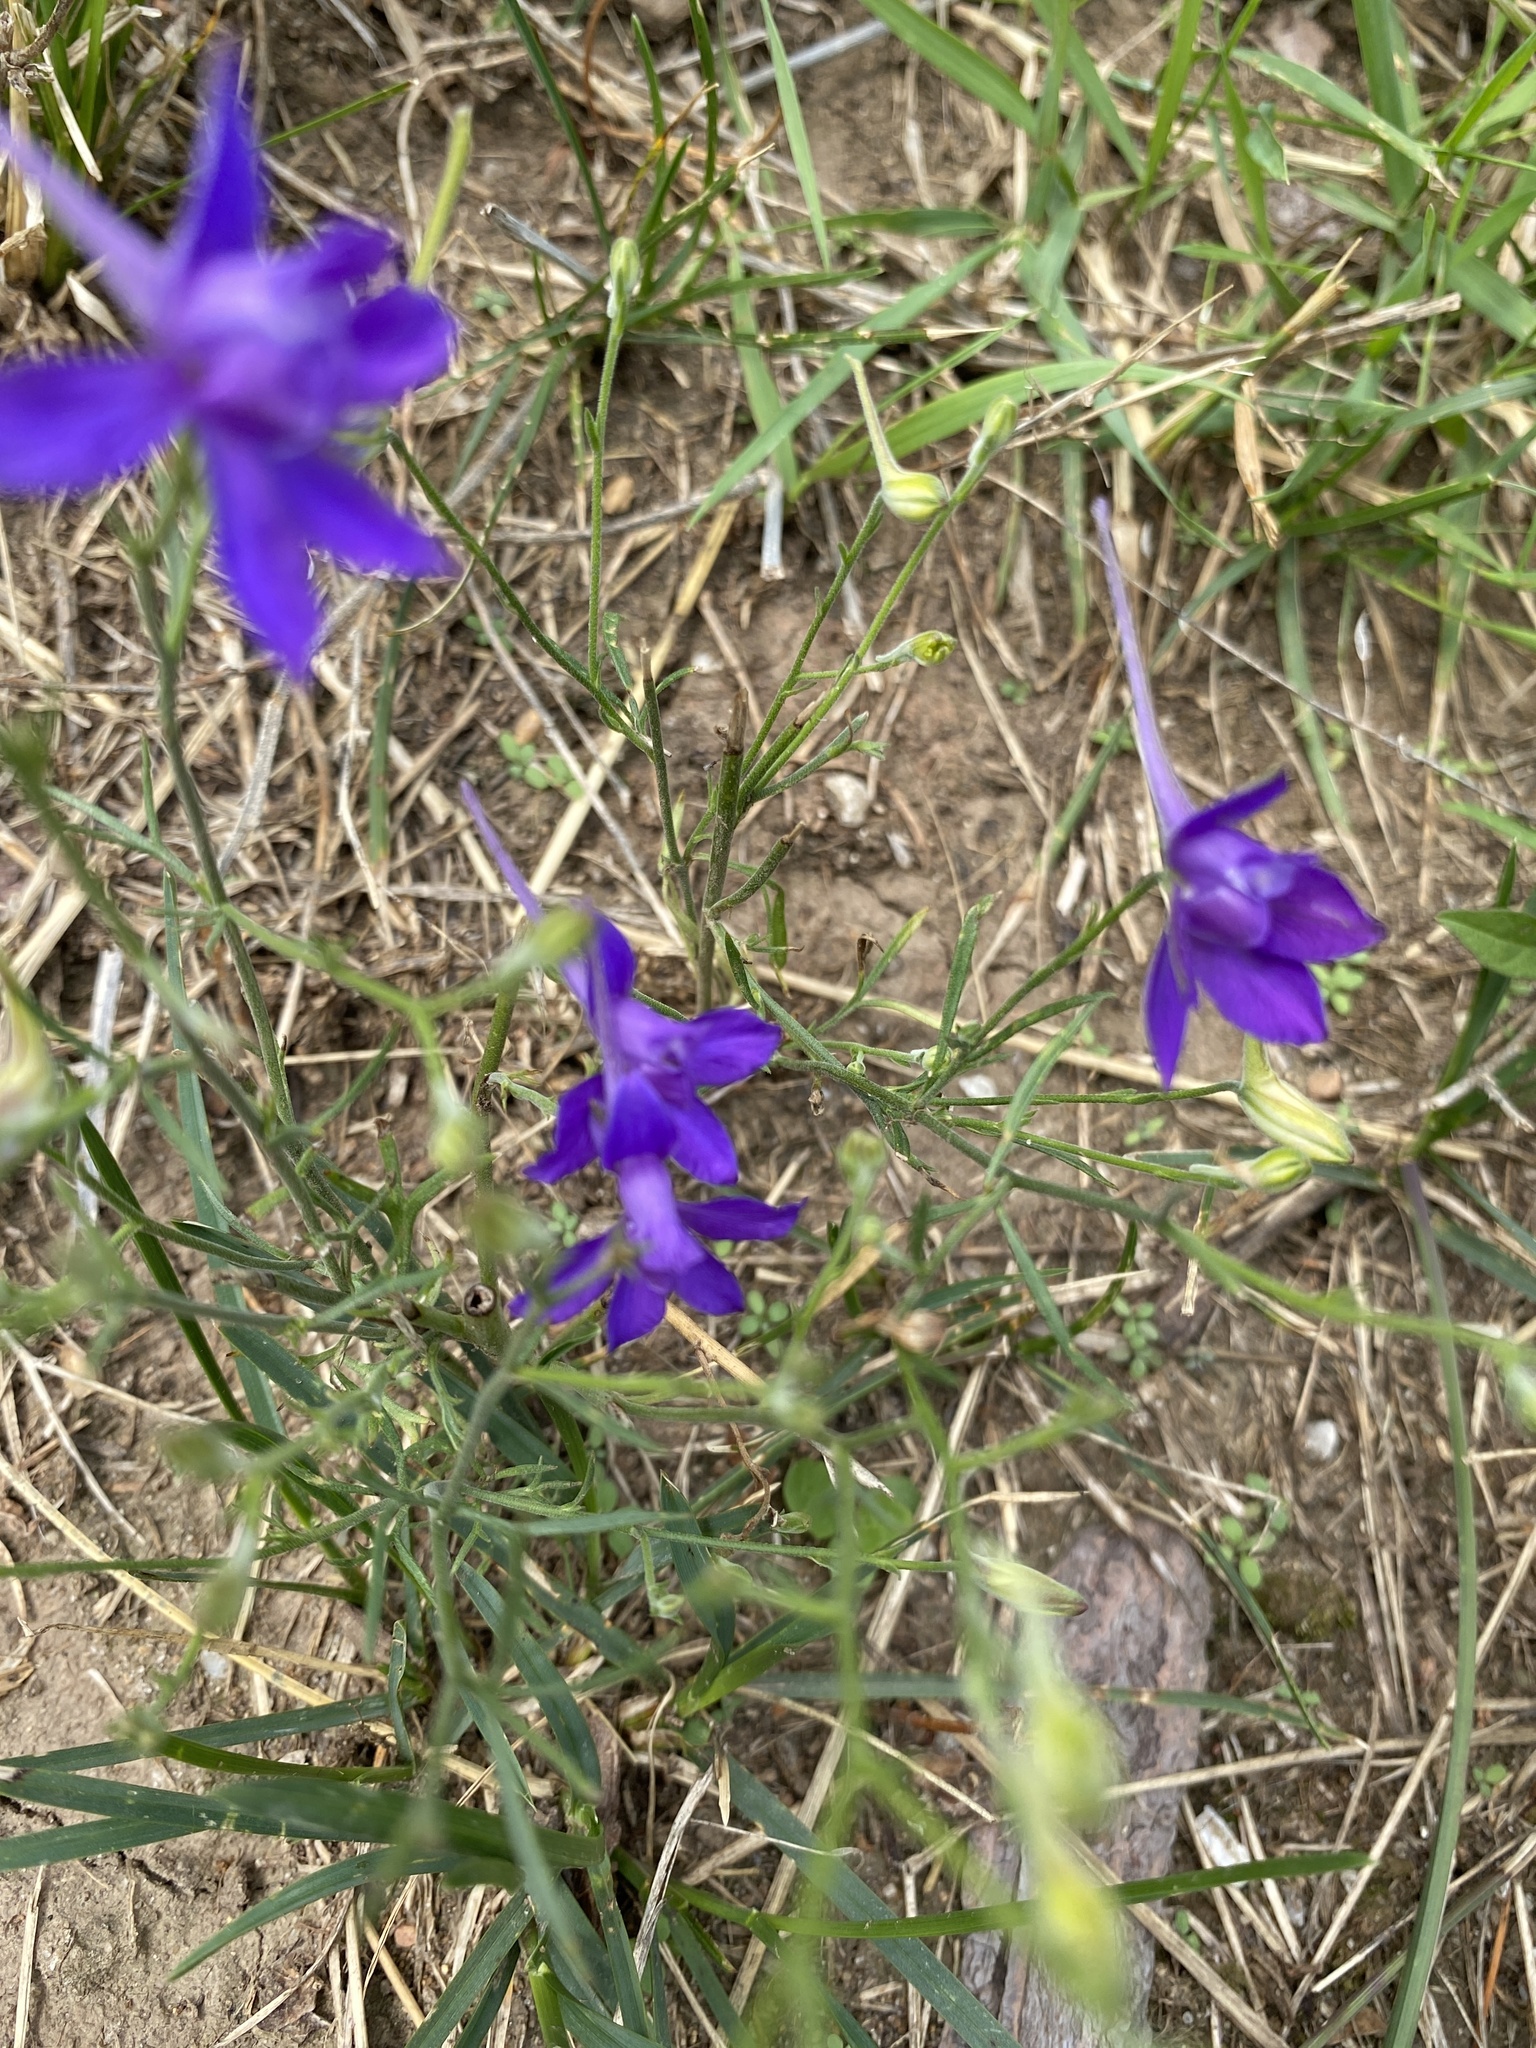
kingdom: Plantae
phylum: Tracheophyta
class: Magnoliopsida
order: Ranunculales
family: Ranunculaceae
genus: Delphinium
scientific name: Delphinium consolida
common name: Branching larkspur
